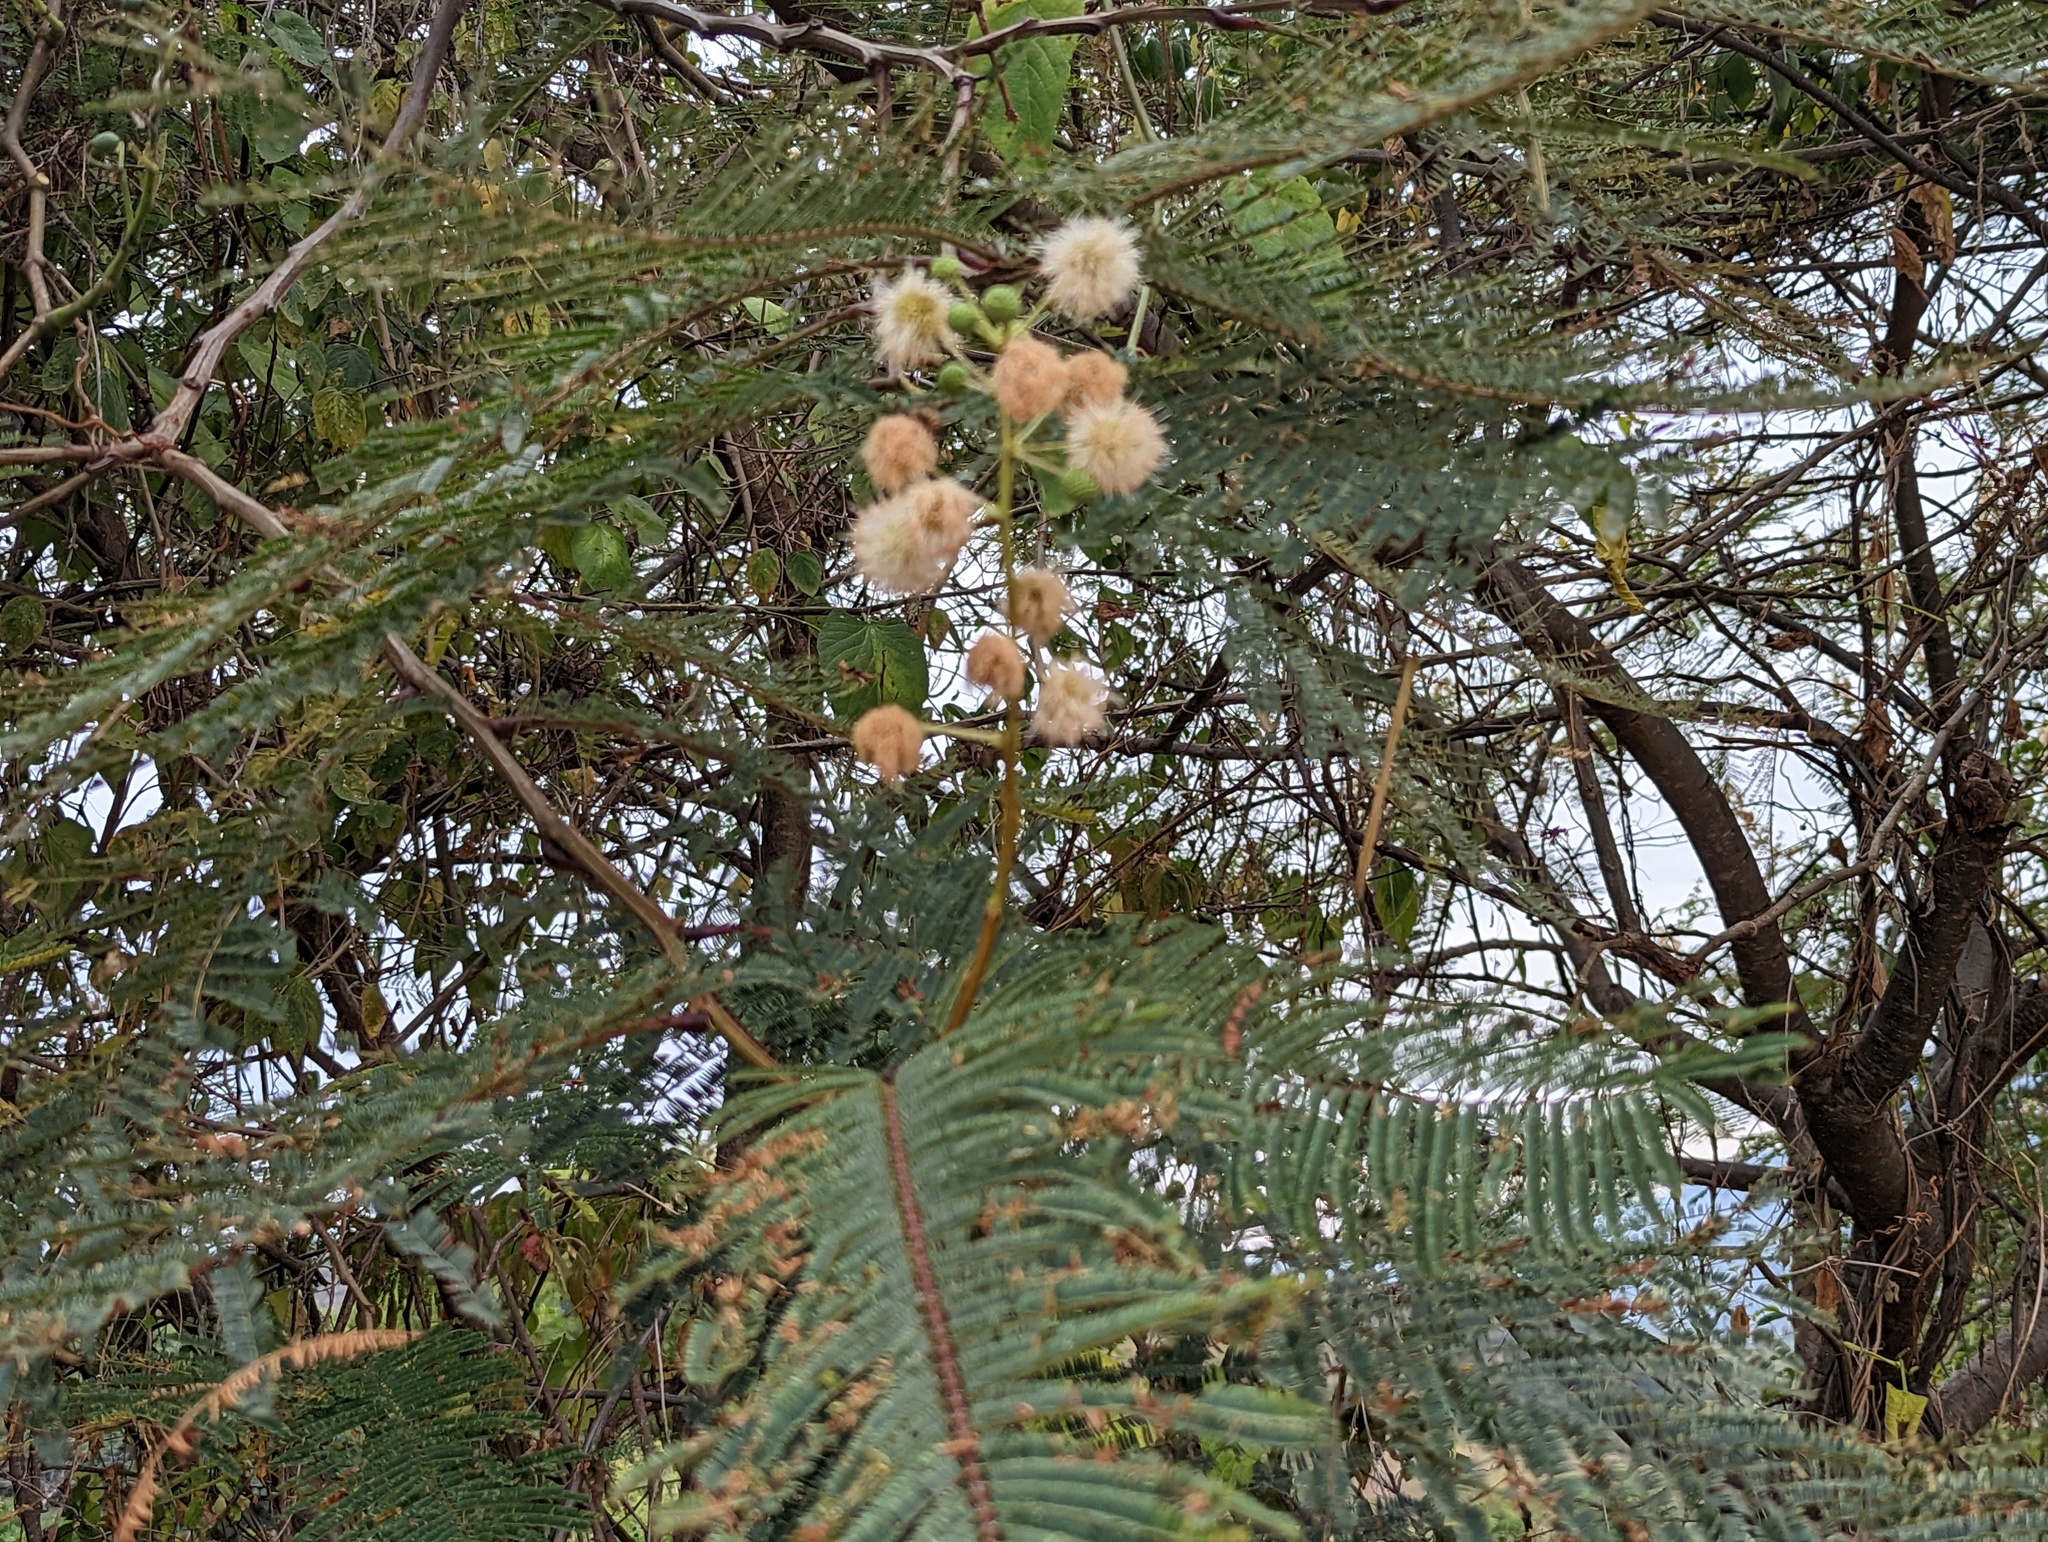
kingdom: Plantae
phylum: Tracheophyta
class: Magnoliopsida
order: Fabales
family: Fabaceae
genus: Leucaena
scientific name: Leucaena esculenta
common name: Guaje
